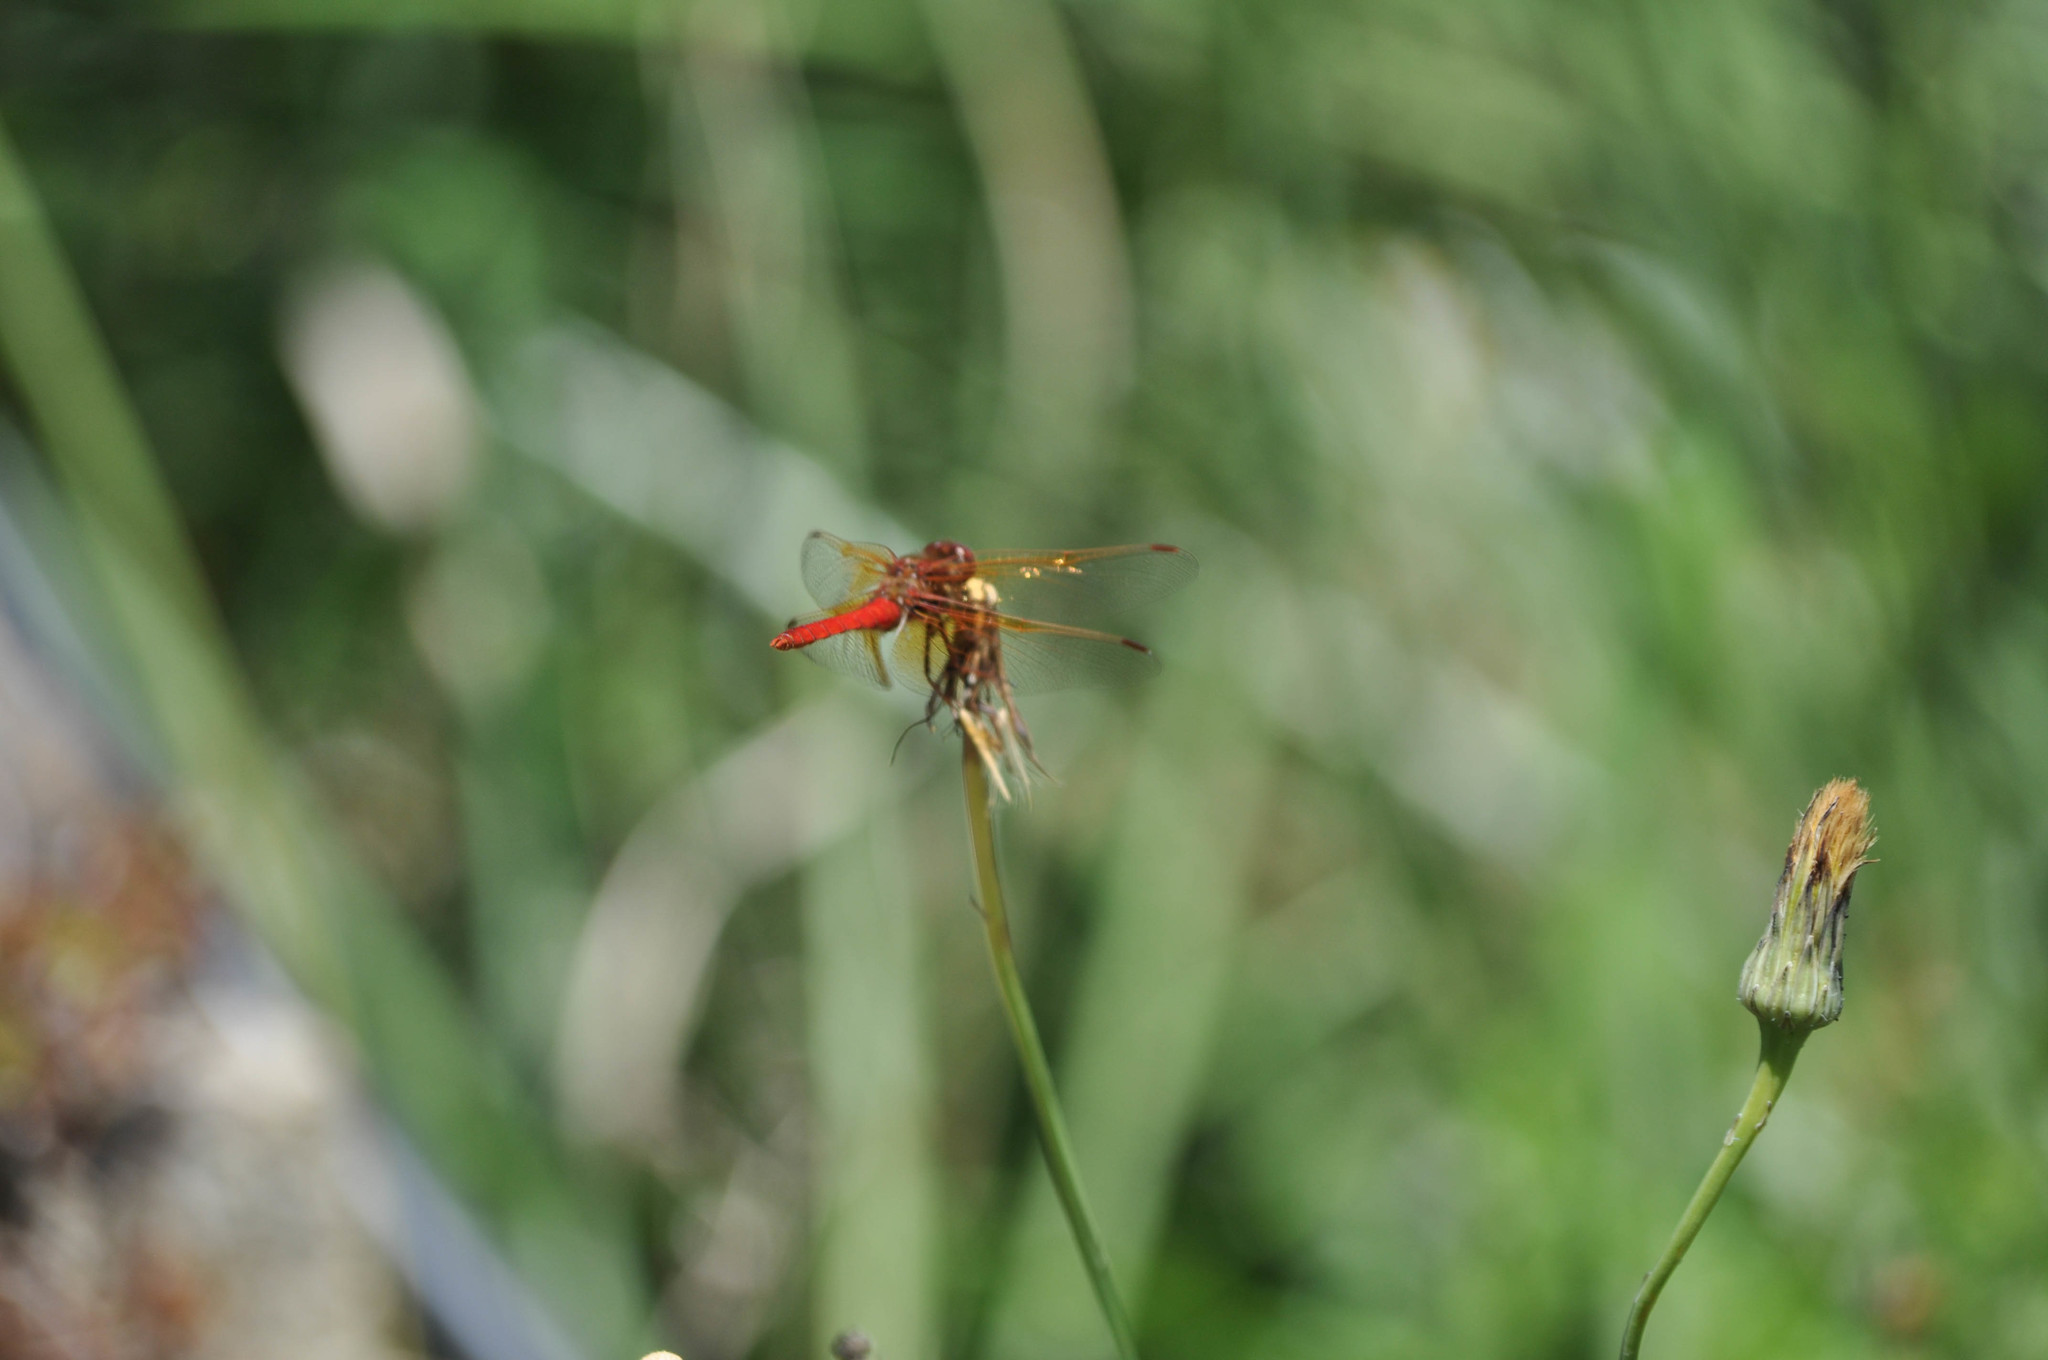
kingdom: Animalia
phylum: Arthropoda
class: Insecta
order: Odonata
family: Libellulidae
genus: Sympetrum
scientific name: Sympetrum illotum
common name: Cardinal meadowhawk
